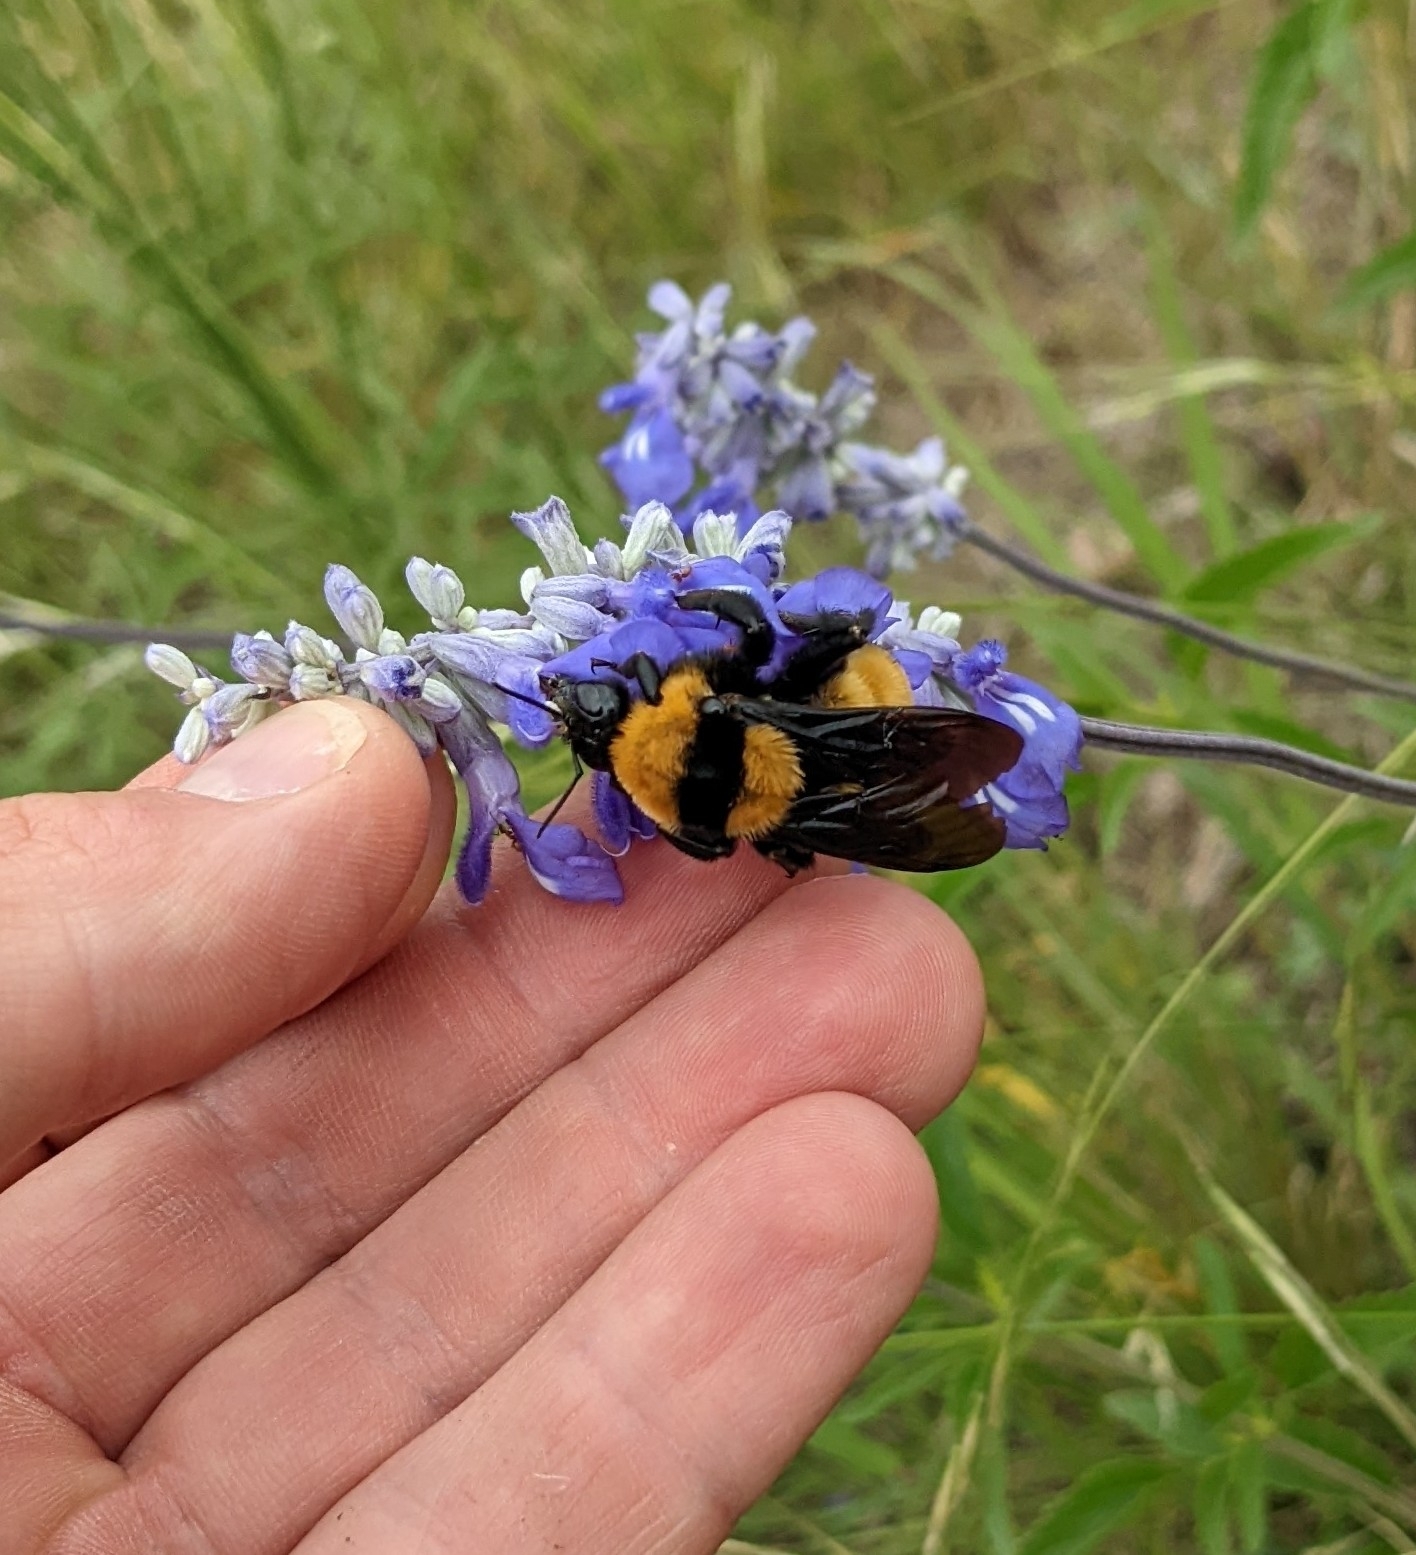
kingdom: Animalia
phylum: Arthropoda
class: Insecta
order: Hymenoptera
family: Apidae
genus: Bombus
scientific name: Bombus sonorus
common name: Sonoran bumble bee
